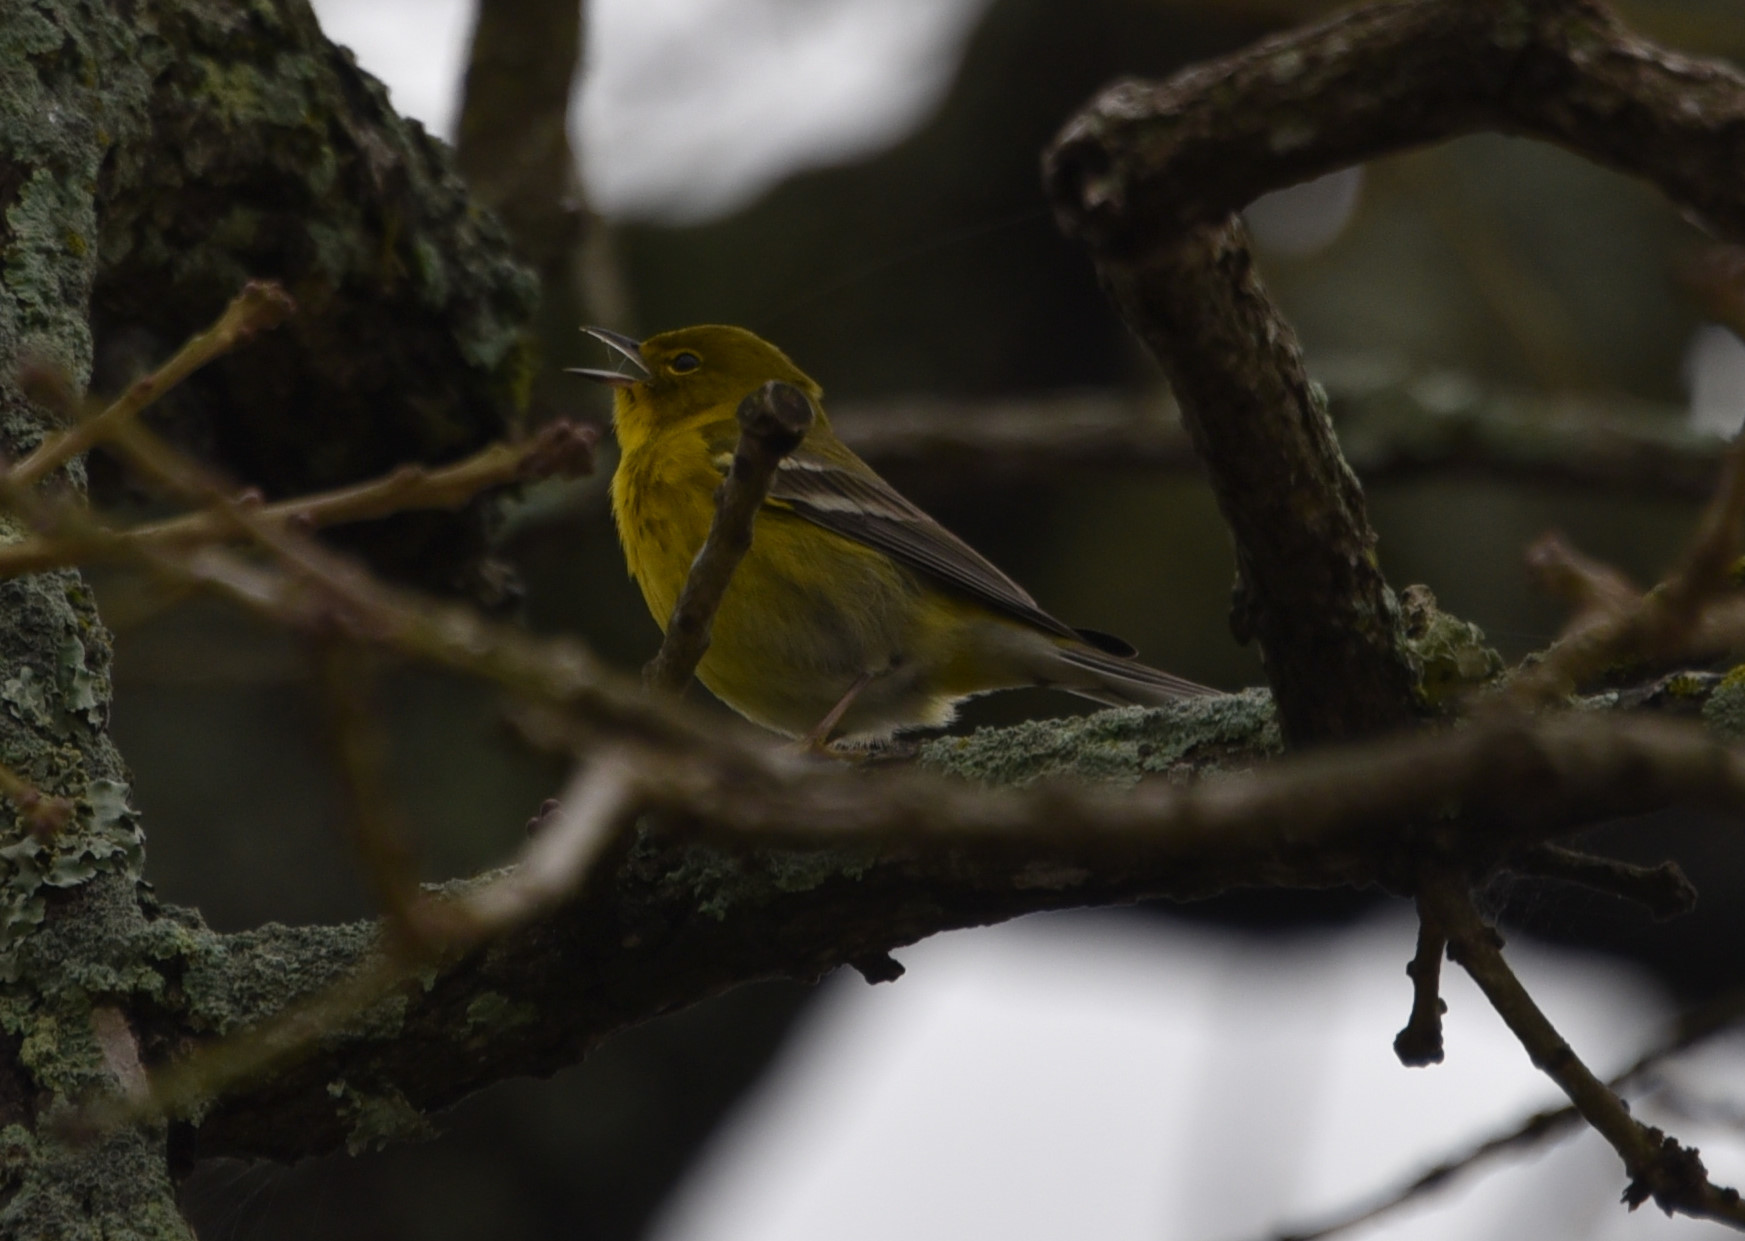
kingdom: Animalia
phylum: Chordata
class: Aves
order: Passeriformes
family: Parulidae
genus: Setophaga
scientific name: Setophaga pinus
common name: Pine warbler
